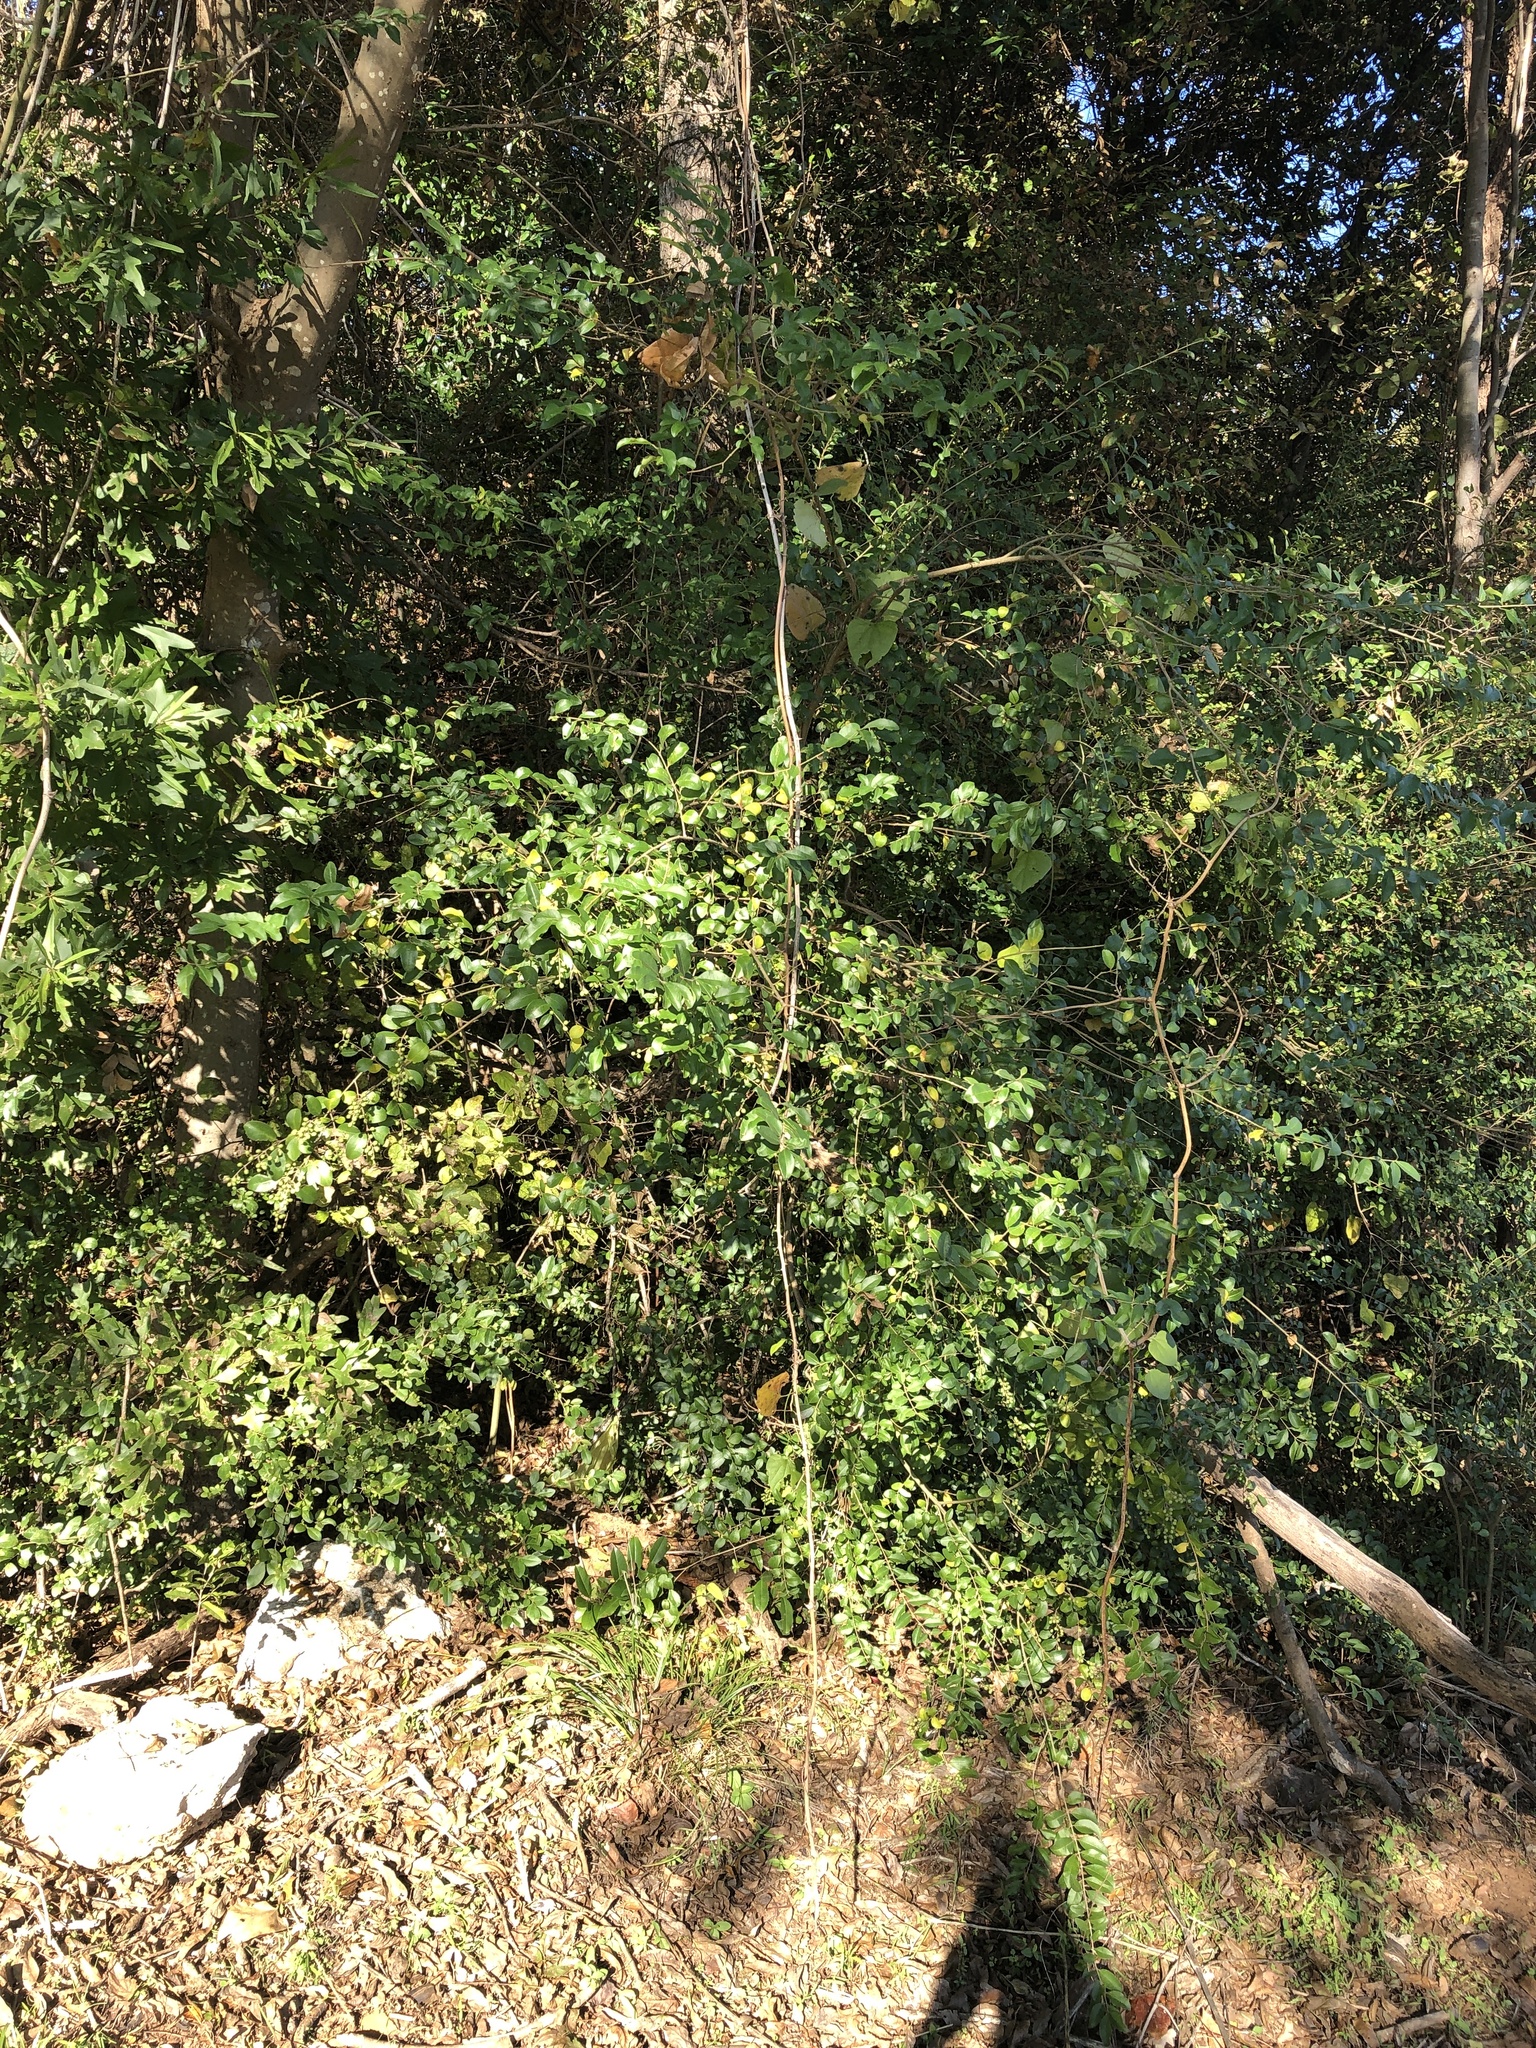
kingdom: Plantae
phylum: Tracheophyta
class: Magnoliopsida
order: Lamiales
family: Oleaceae
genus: Ligustrum
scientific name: Ligustrum sinense
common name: Chinese privet
